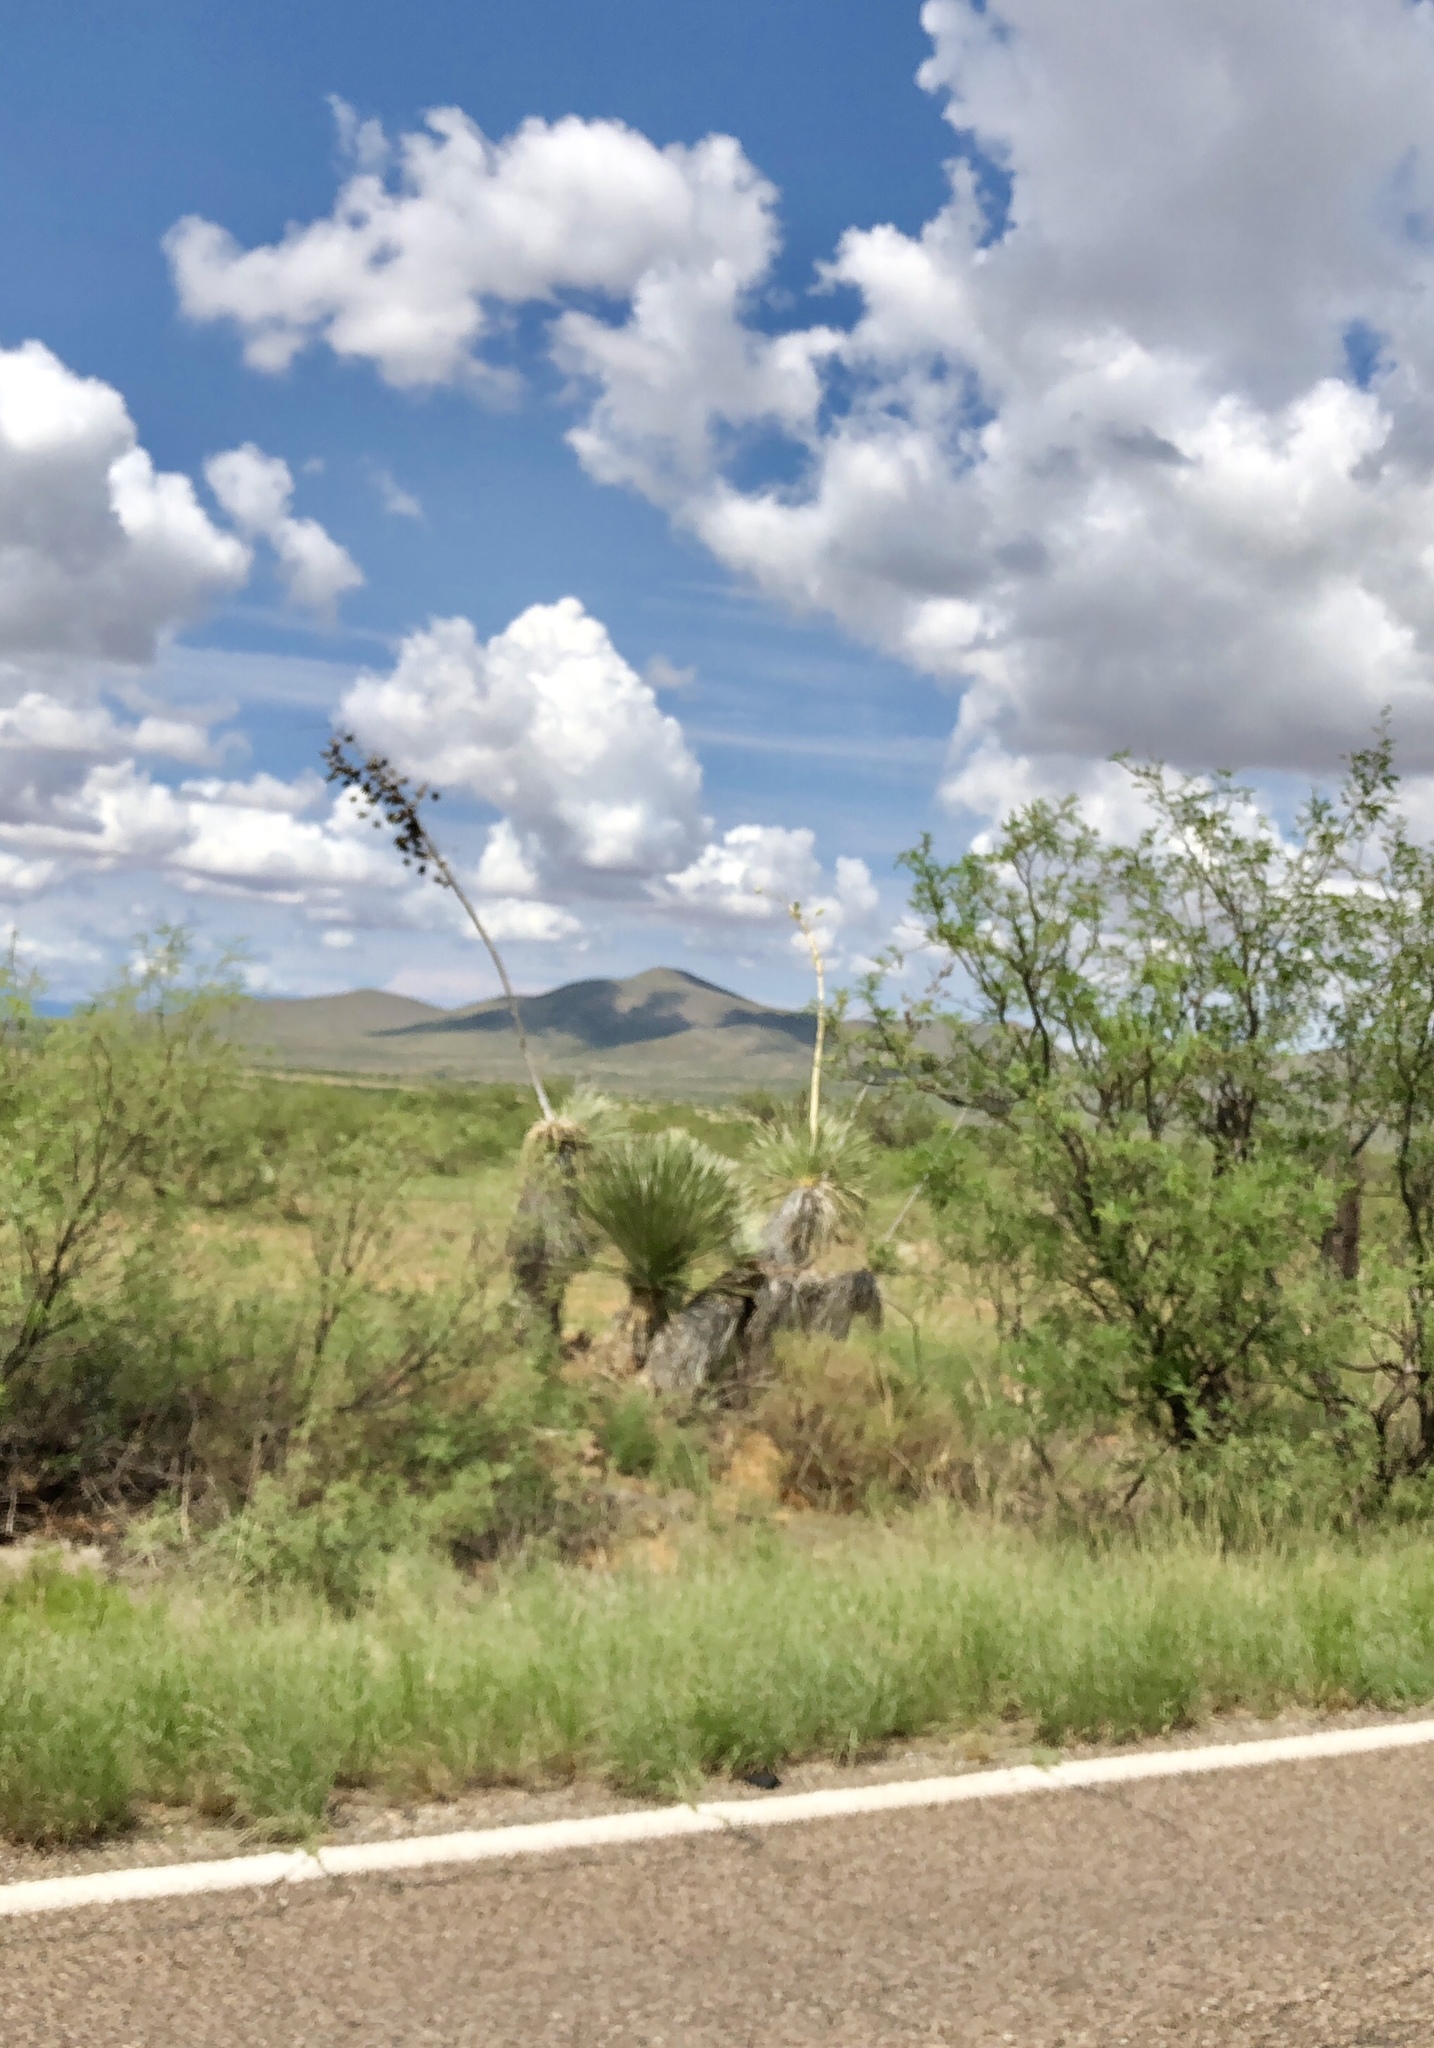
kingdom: Plantae
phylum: Tracheophyta
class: Liliopsida
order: Asparagales
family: Asparagaceae
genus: Yucca
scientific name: Yucca elata
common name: Palmella
